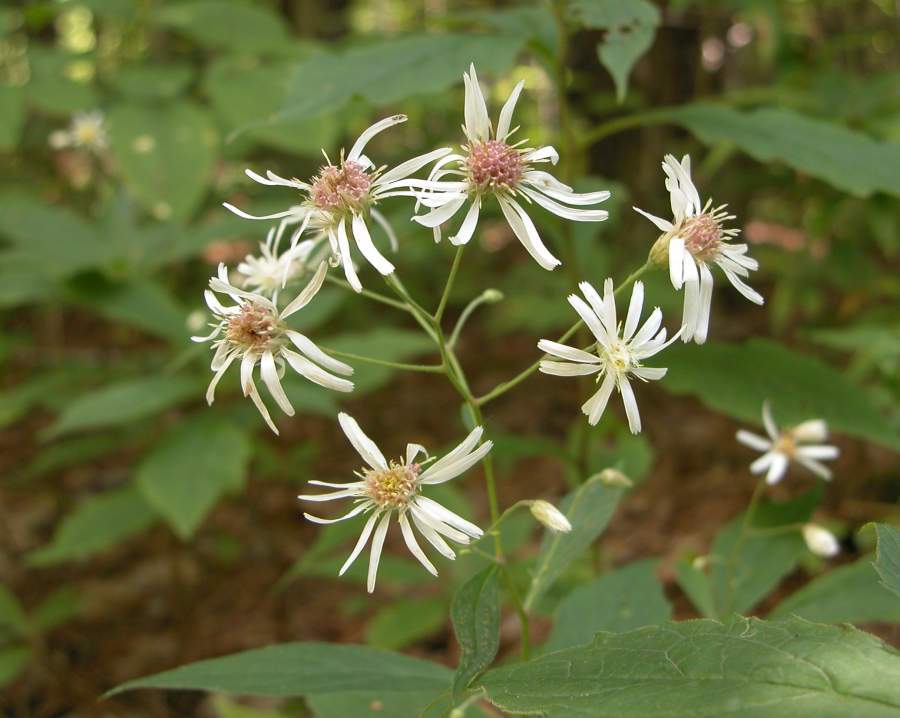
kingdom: Plantae
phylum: Tracheophyta
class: Magnoliopsida
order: Asterales
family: Asteraceae
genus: Oclemena
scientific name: Oclemena acuminata
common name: Mountain aster
